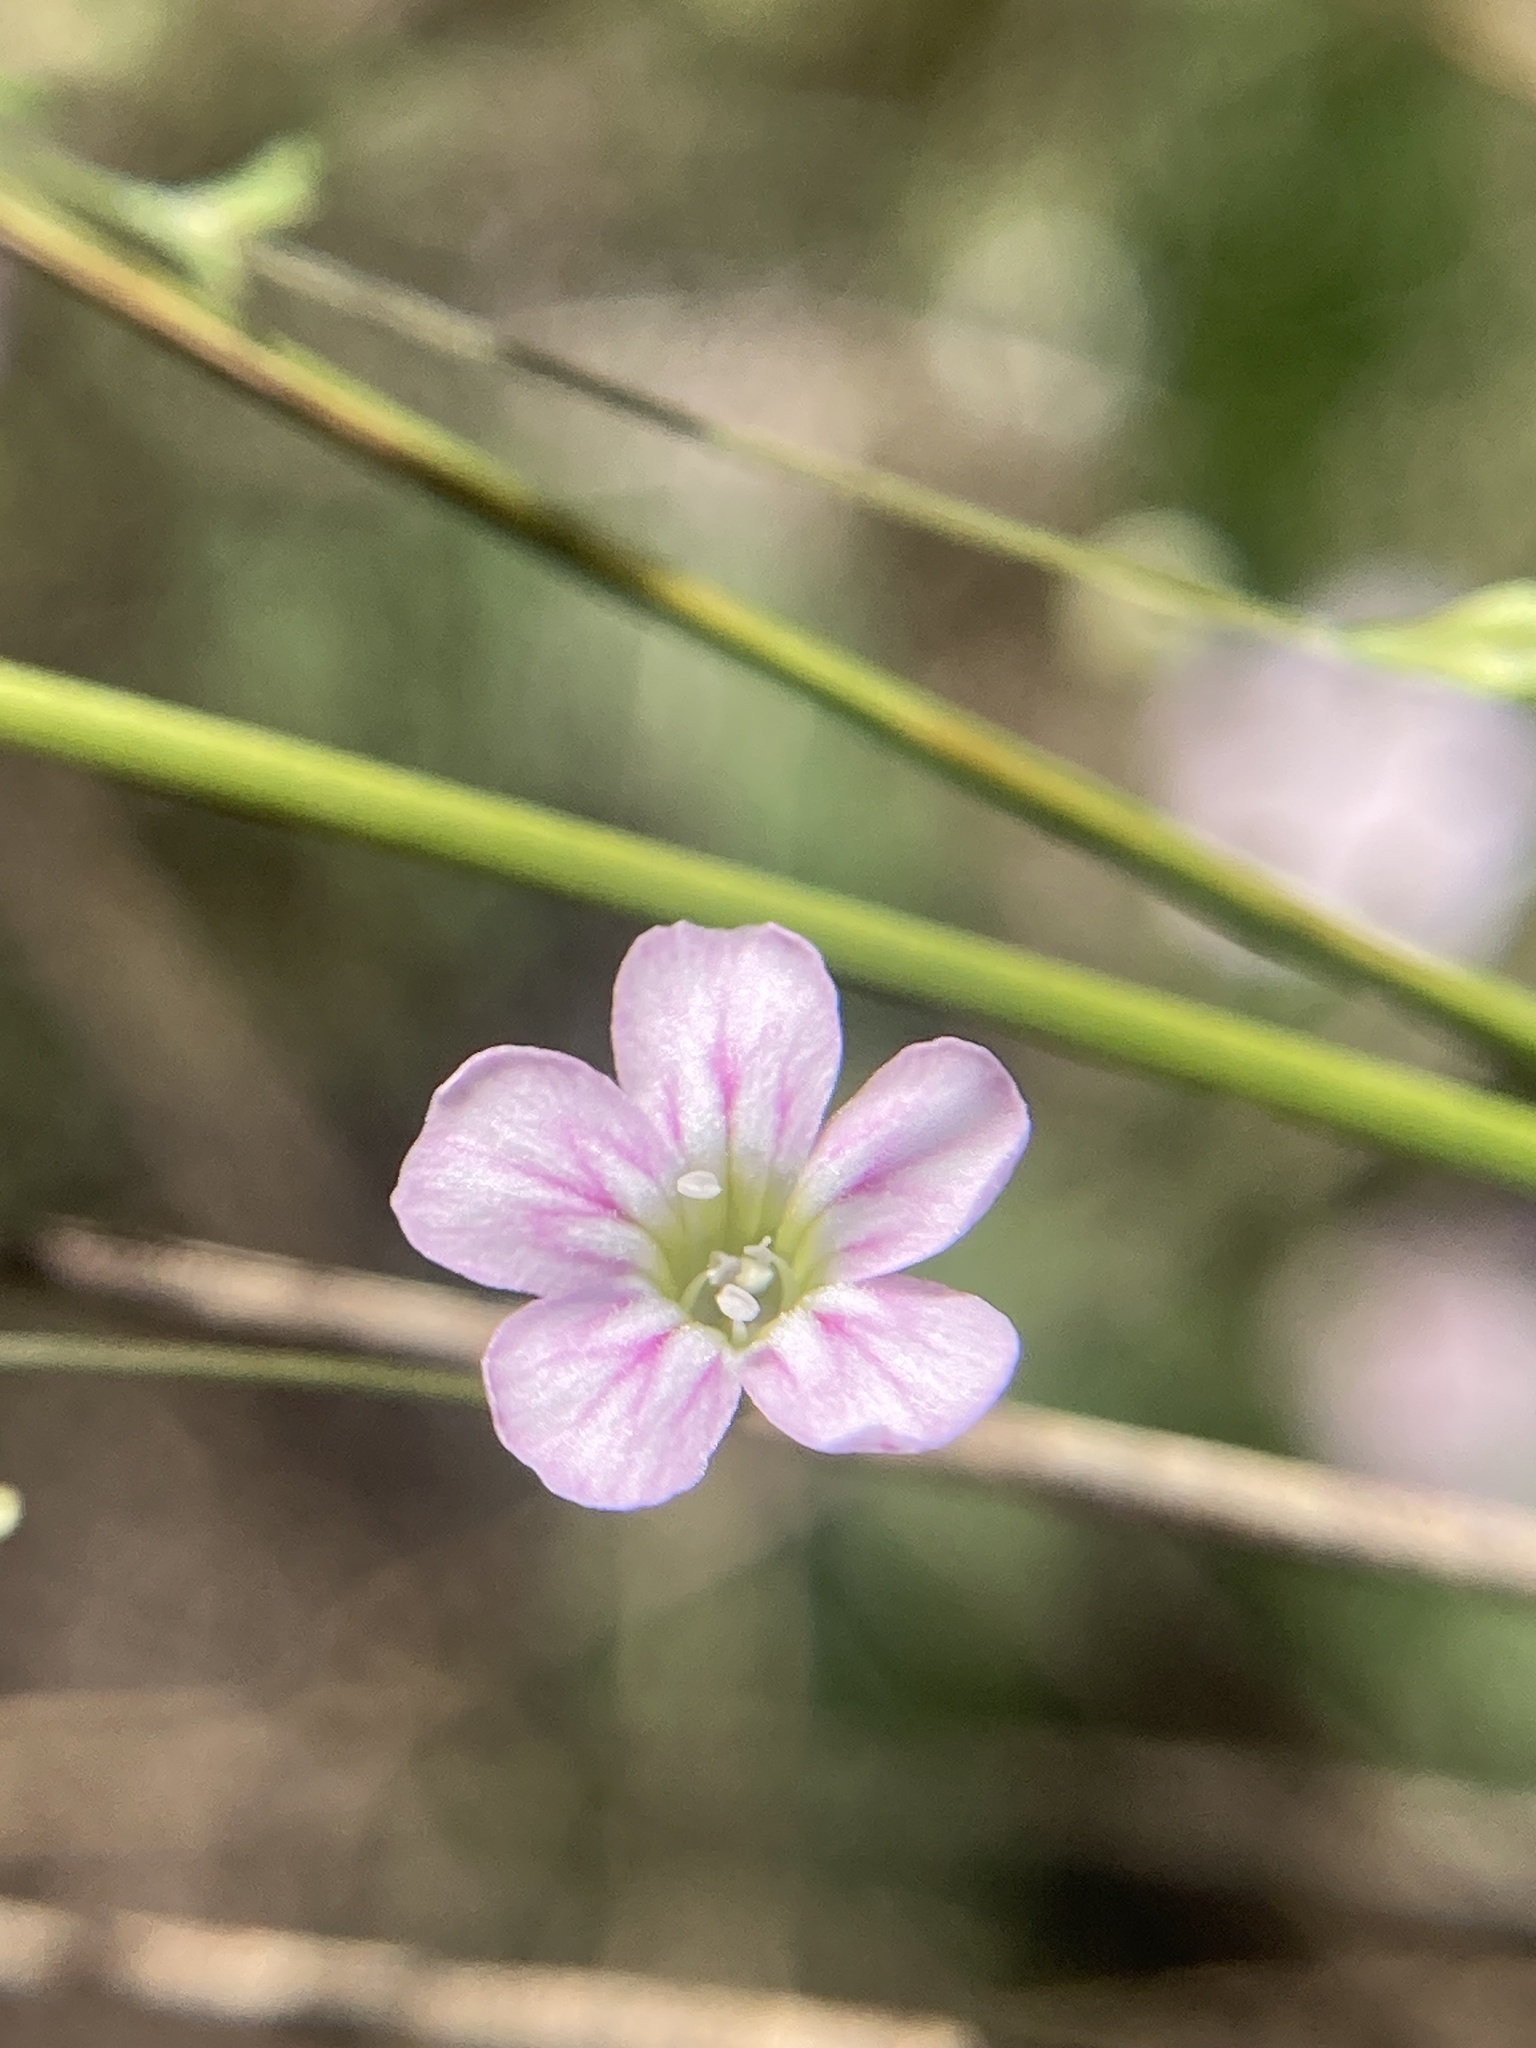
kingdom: Plantae
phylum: Tracheophyta
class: Magnoliopsida
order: Caryophyllales
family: Caryophyllaceae
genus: Psammophiliella
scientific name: Psammophiliella muralis
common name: Cushion baby's-breath
